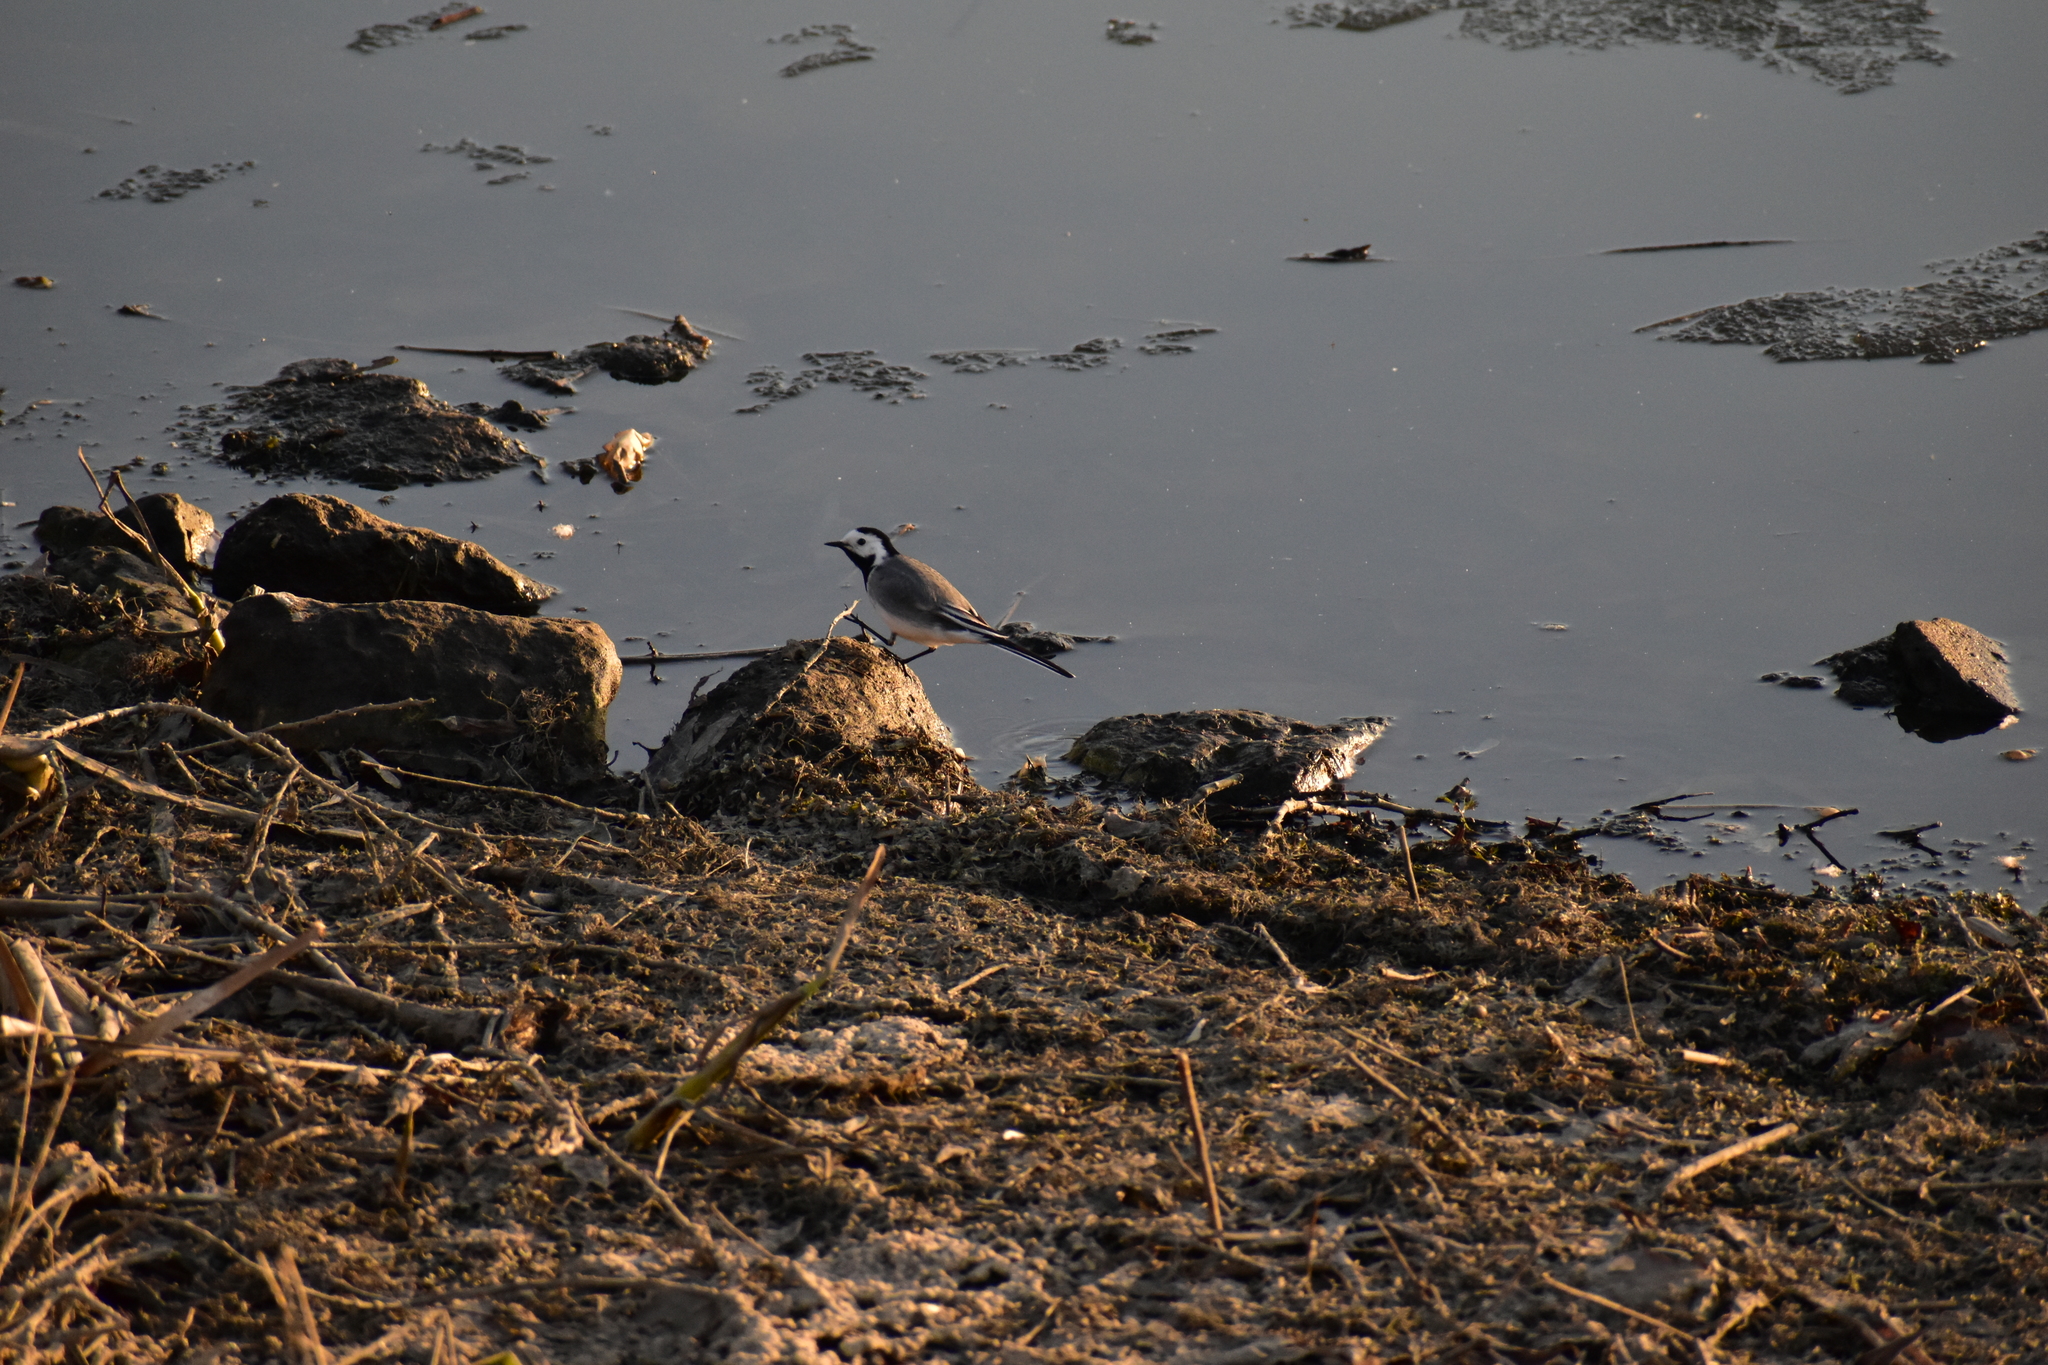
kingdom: Animalia
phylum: Chordata
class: Aves
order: Passeriformes
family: Motacillidae
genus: Motacilla
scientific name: Motacilla alba
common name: White wagtail
